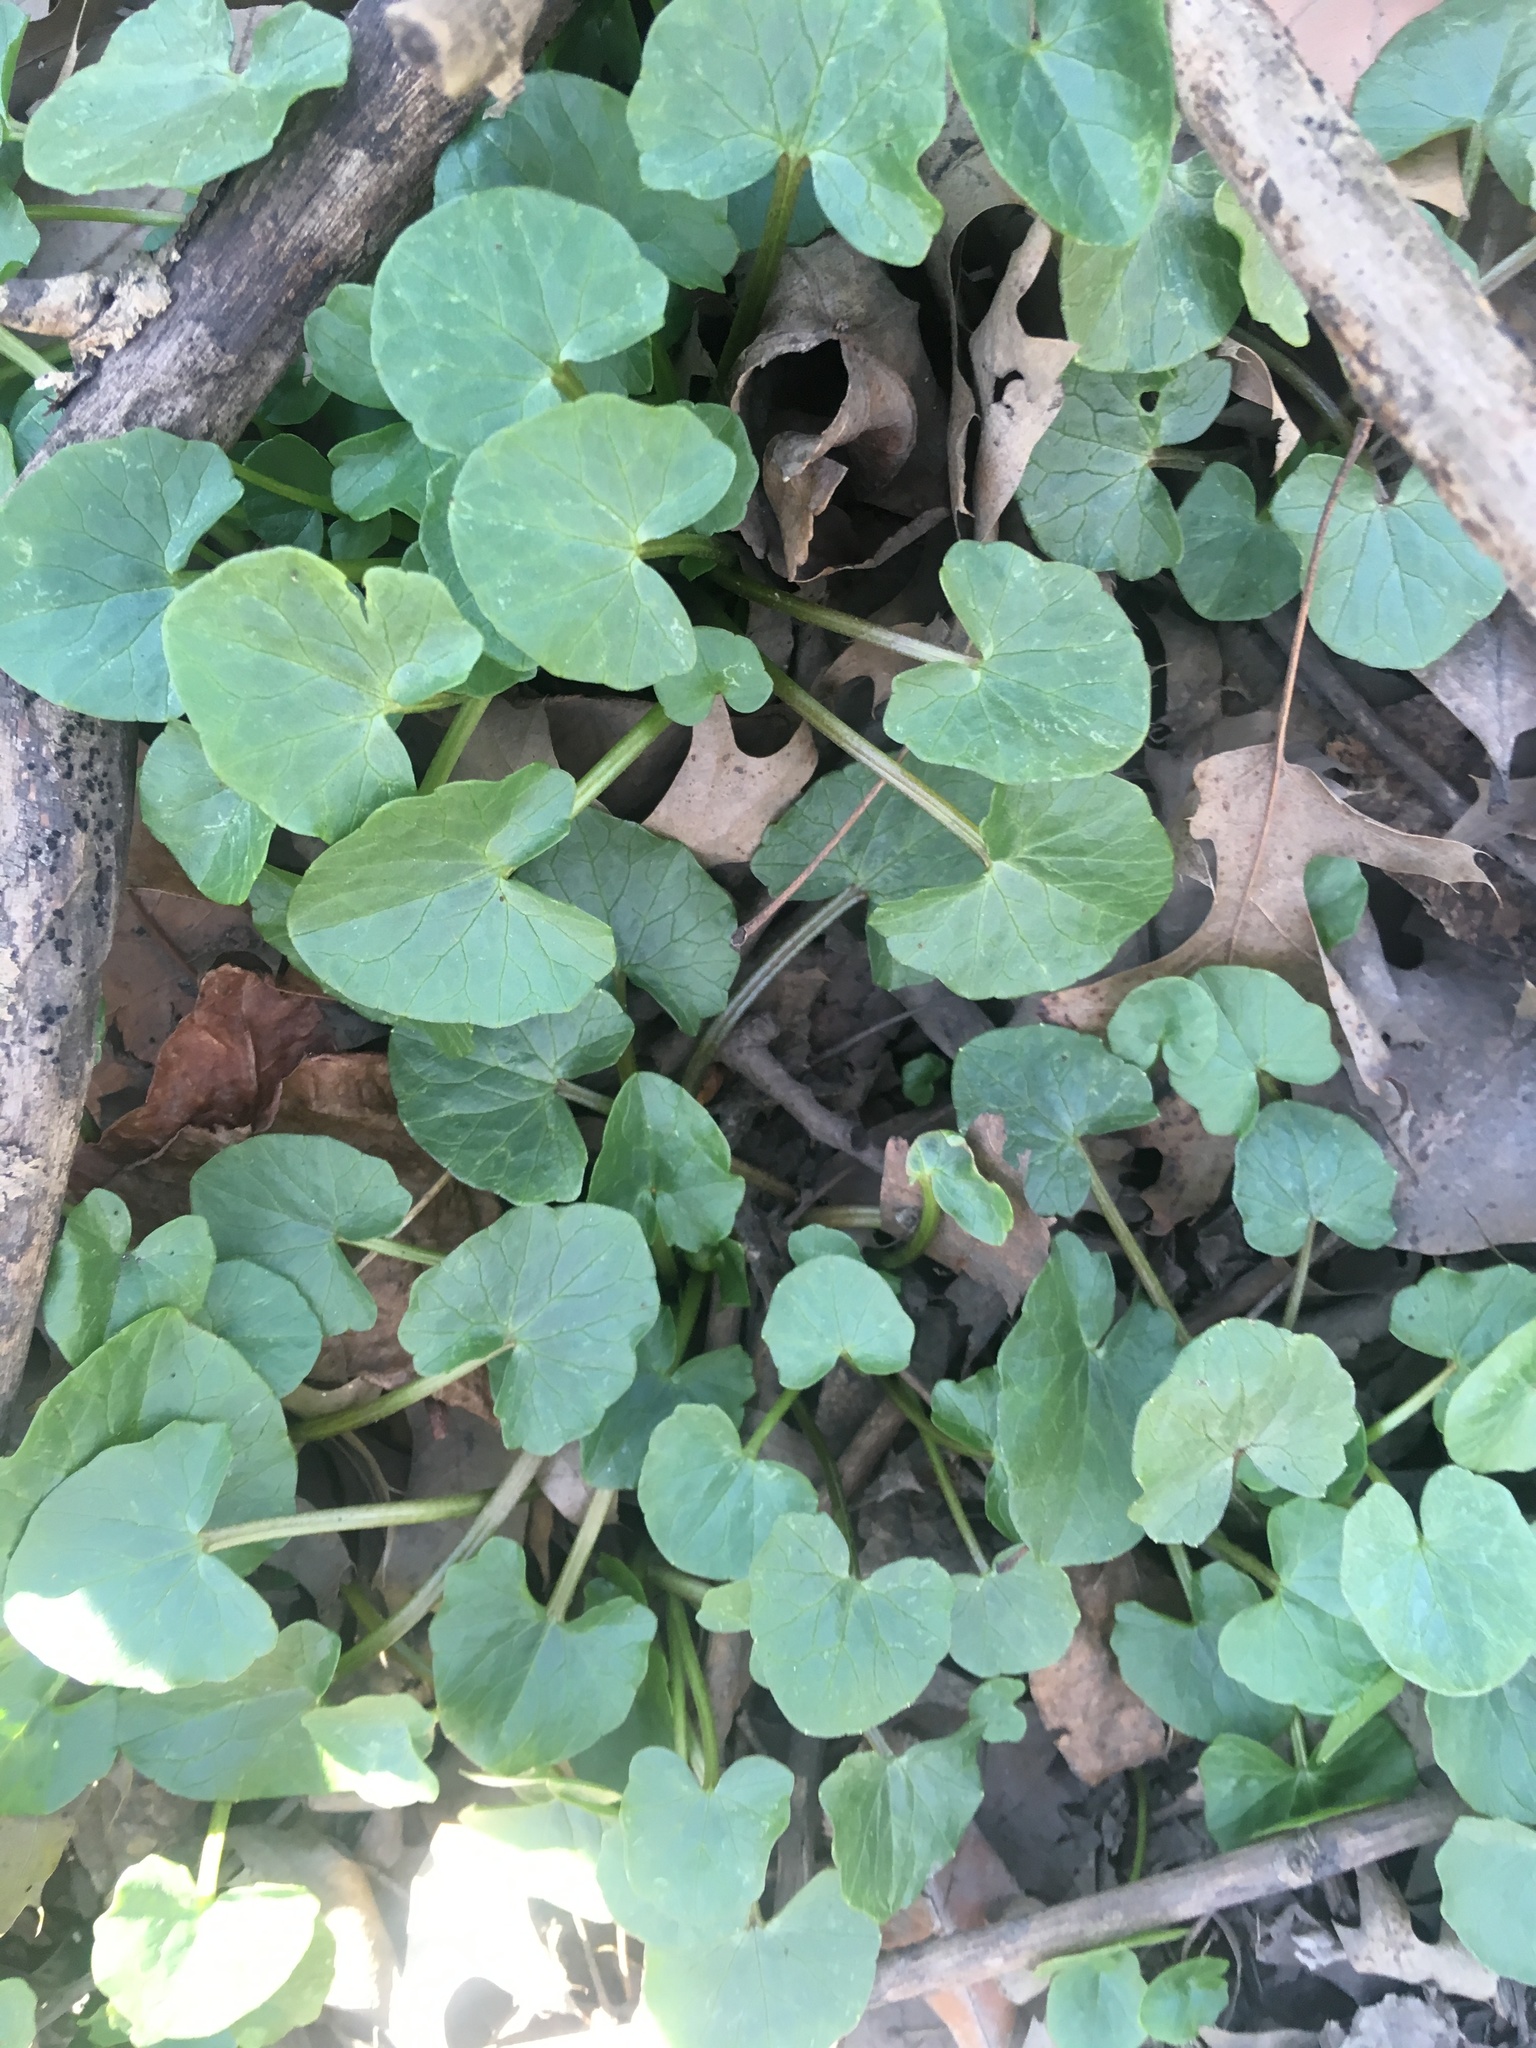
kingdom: Plantae
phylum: Tracheophyta
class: Magnoliopsida
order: Ranunculales
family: Ranunculaceae
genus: Ficaria
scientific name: Ficaria verna
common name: Lesser celandine
